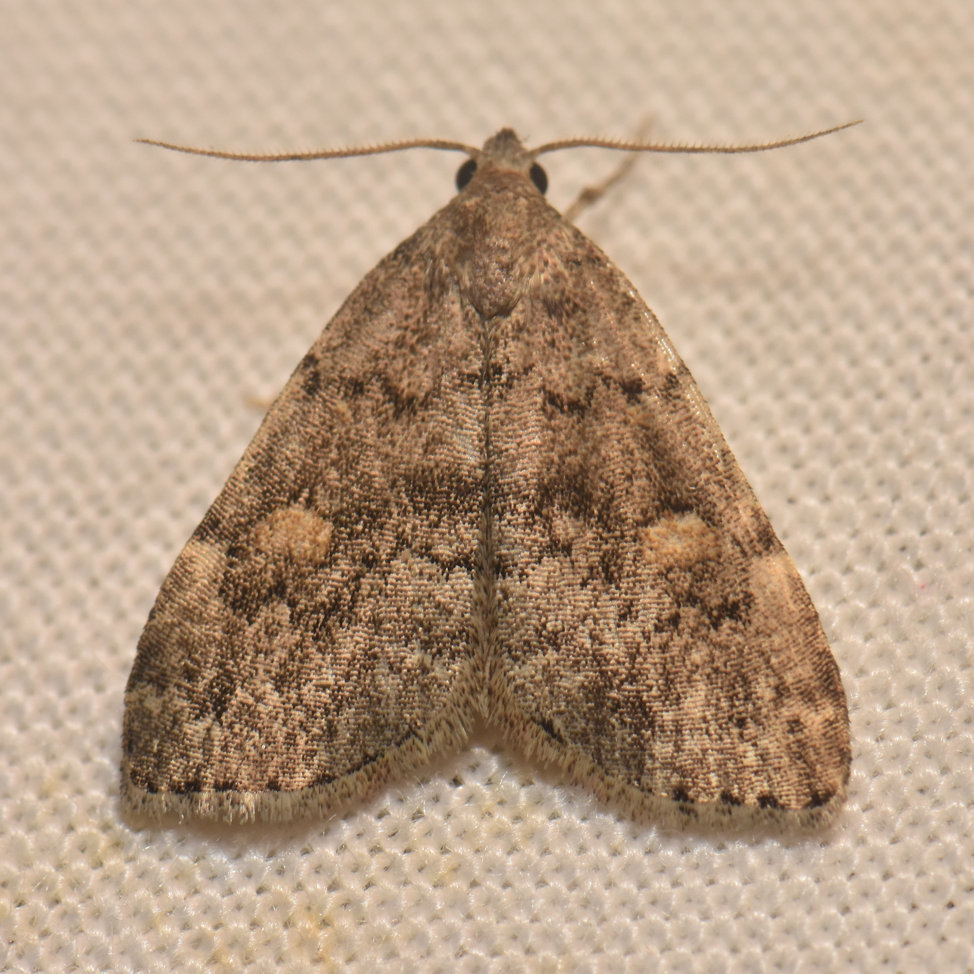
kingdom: Animalia
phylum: Arthropoda
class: Insecta
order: Lepidoptera
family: Erebidae
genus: Idia
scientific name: Idia aemula
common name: Common idia moth
